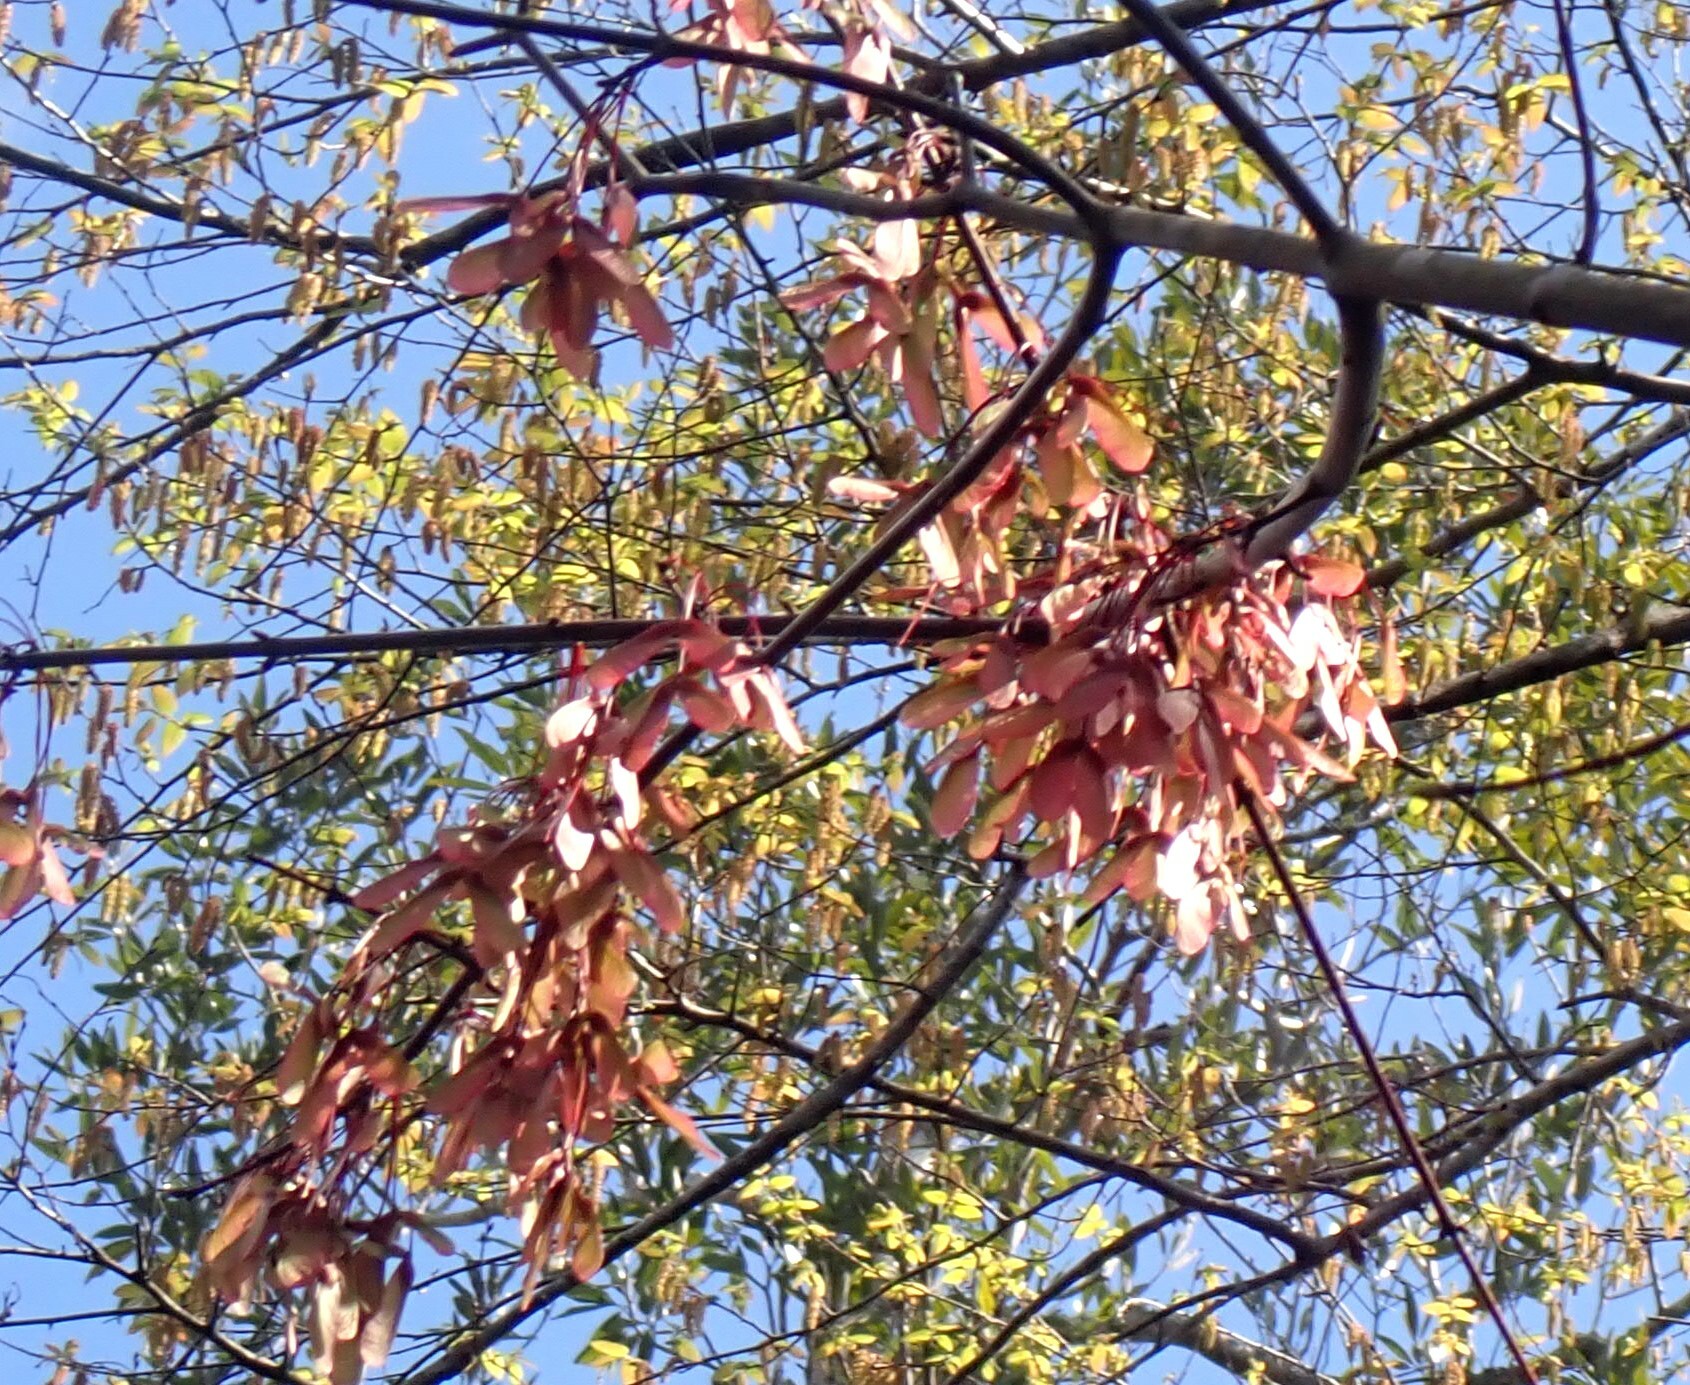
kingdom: Plantae
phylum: Tracheophyta
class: Magnoliopsida
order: Sapindales
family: Sapindaceae
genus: Acer
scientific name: Acer rubrum
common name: Red maple
